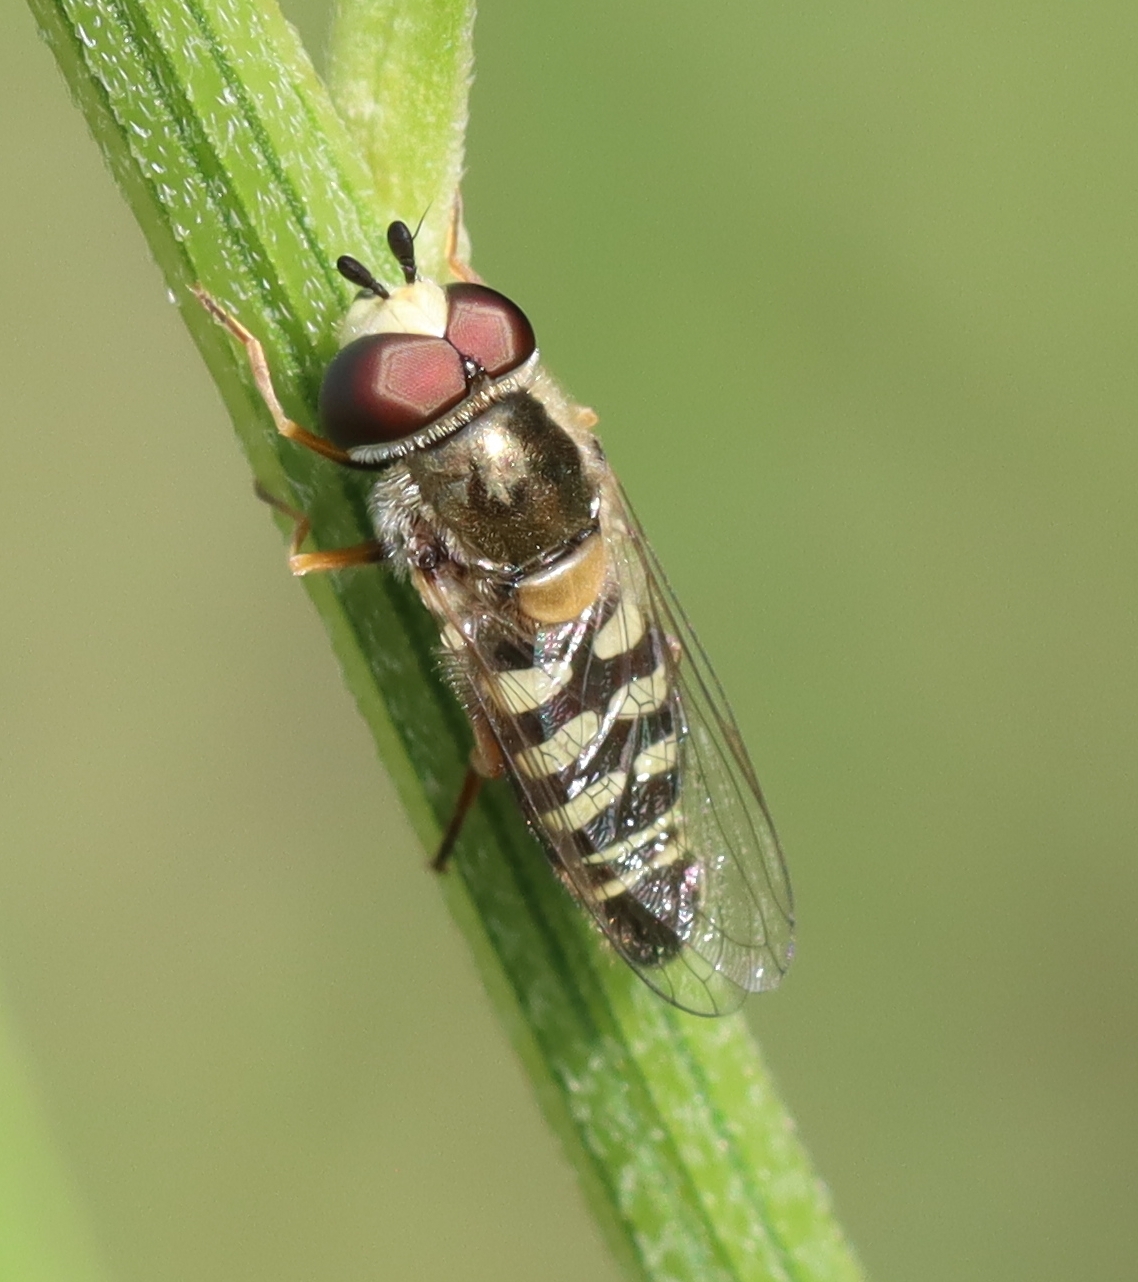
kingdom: Animalia
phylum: Arthropoda
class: Insecta
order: Diptera
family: Syrphidae
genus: Eupeodes
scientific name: Eupeodes volucris
